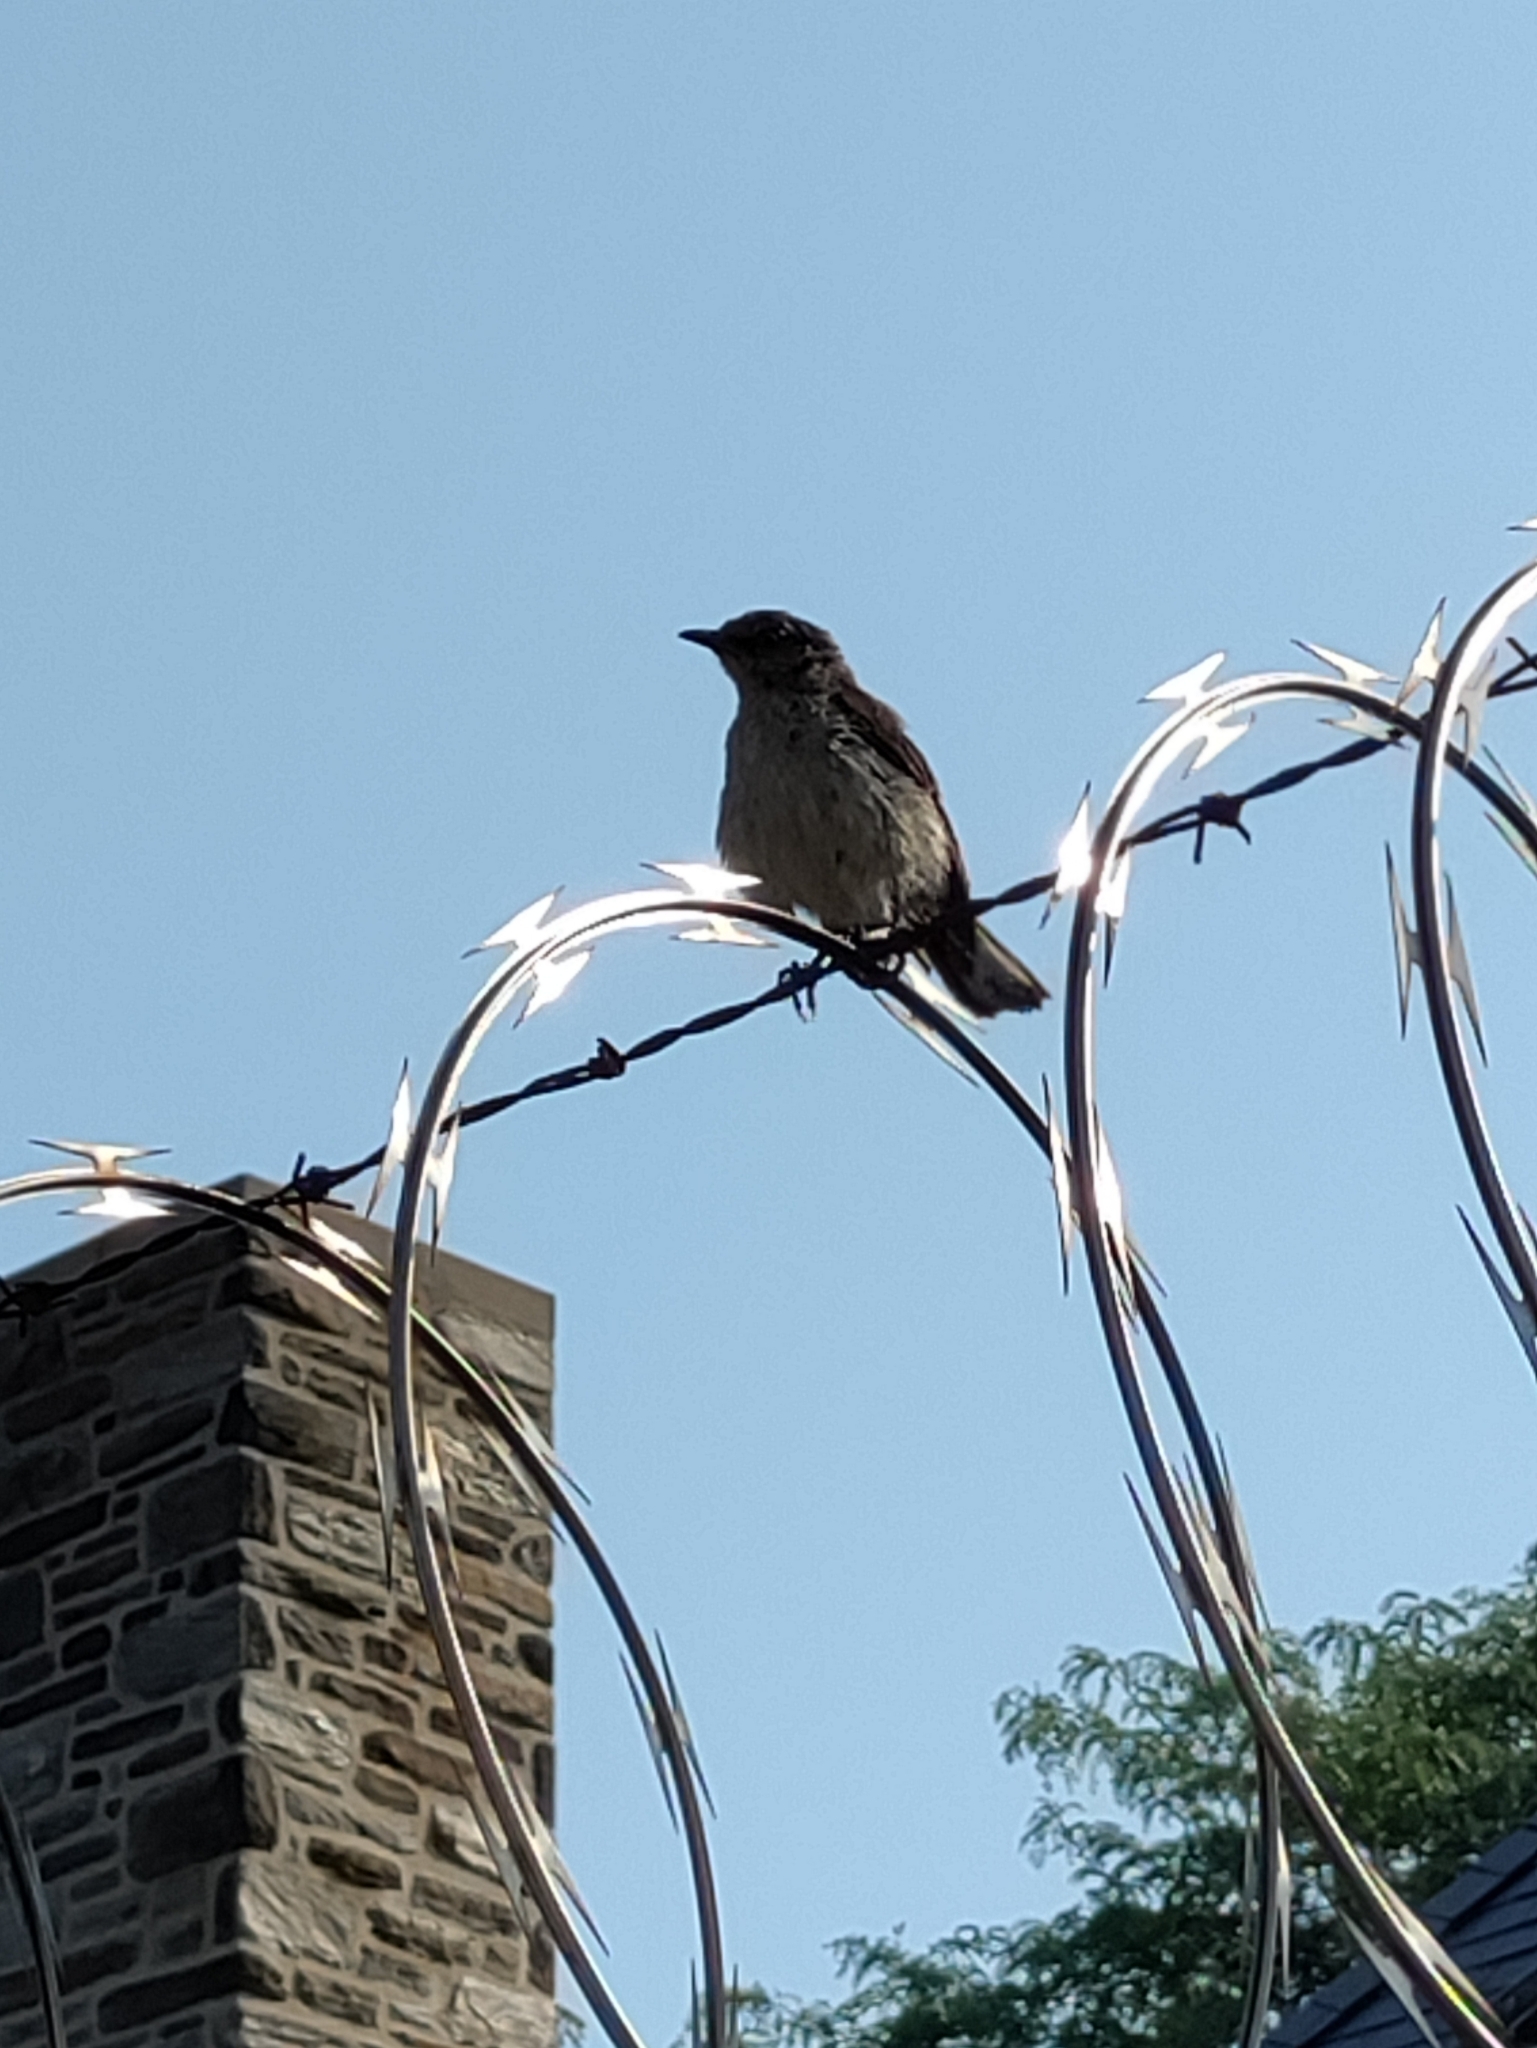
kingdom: Animalia
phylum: Chordata
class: Aves
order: Passeriformes
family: Mimidae
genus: Mimus
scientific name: Mimus polyglottos
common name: Northern mockingbird
